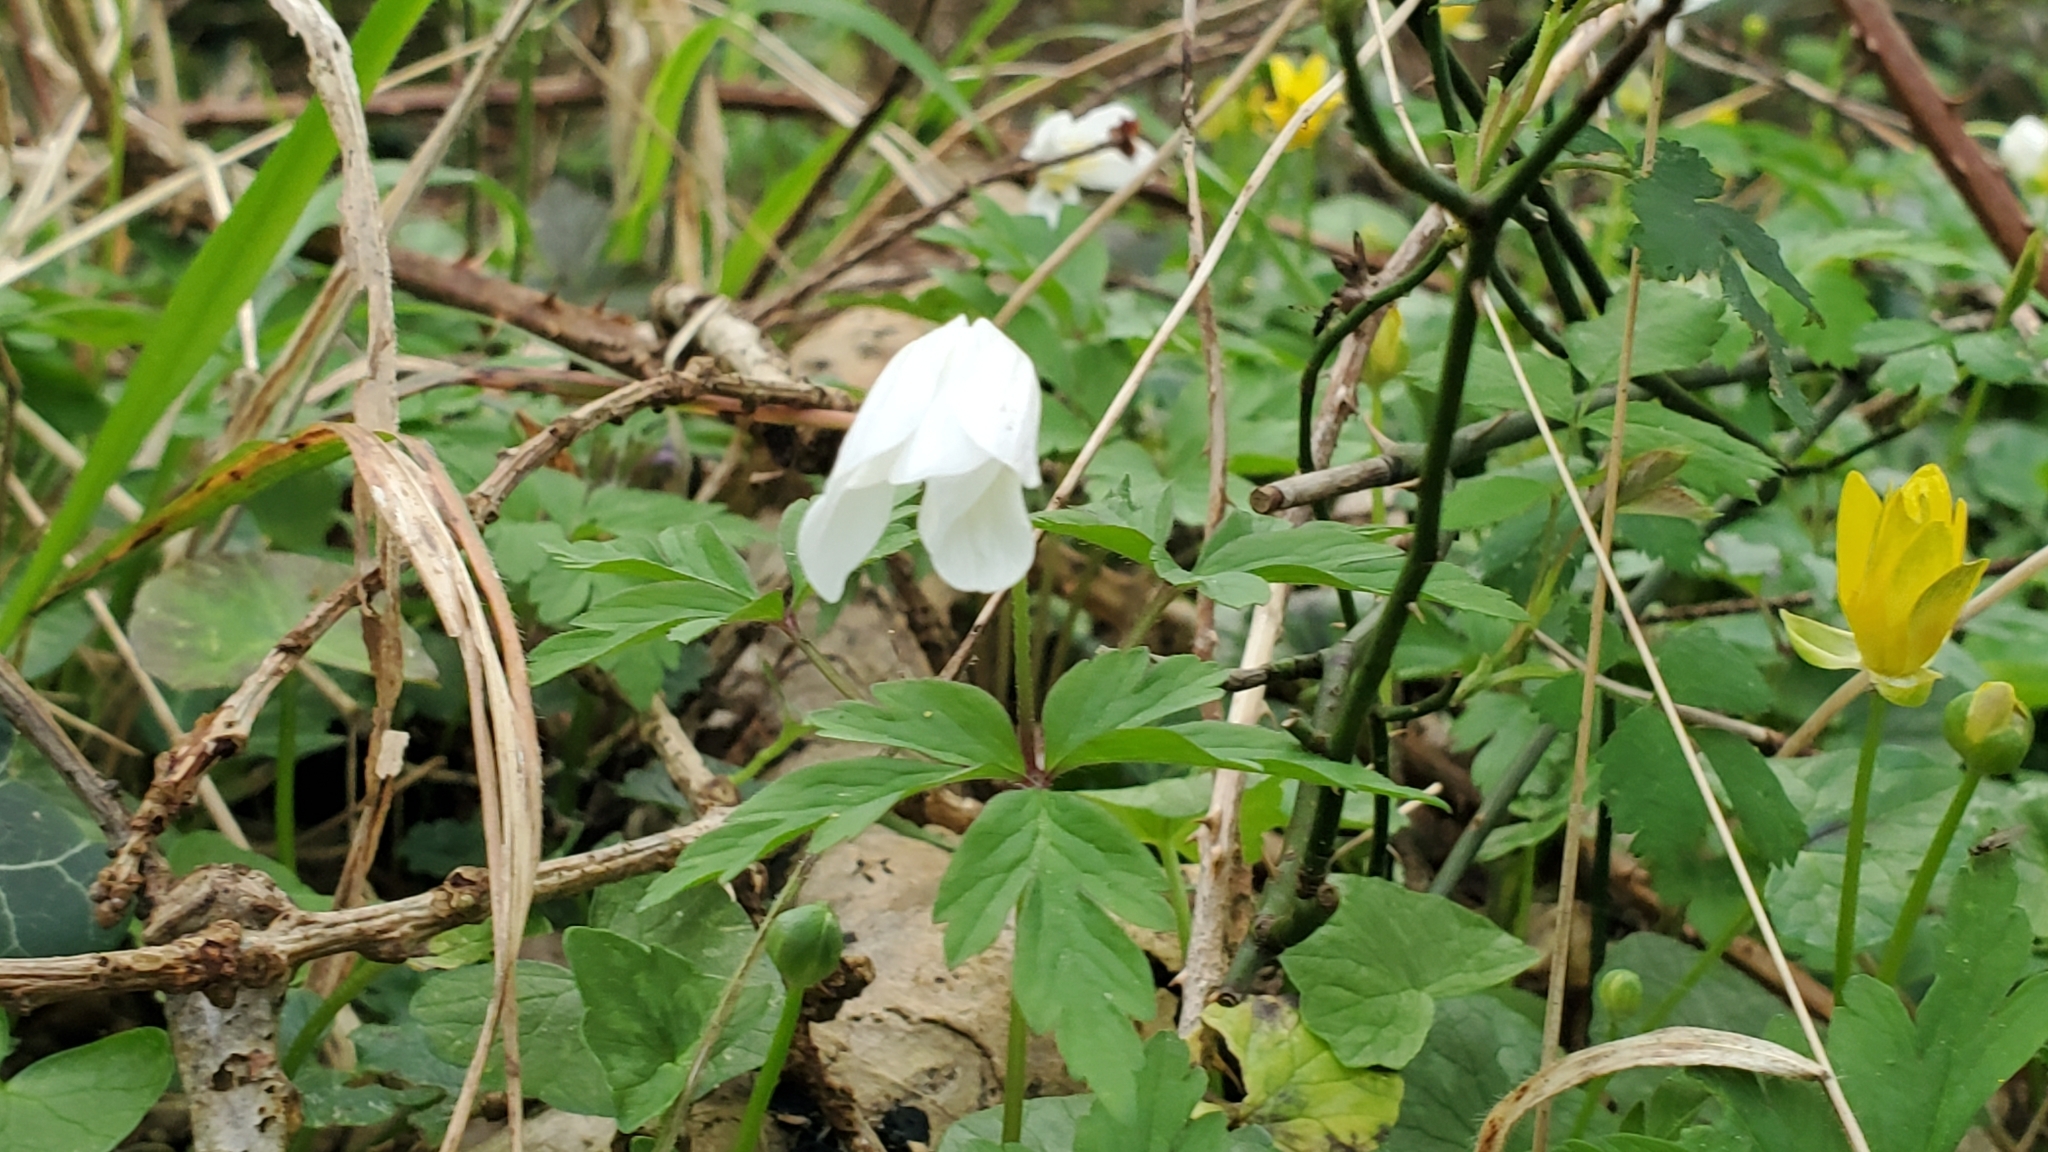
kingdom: Plantae
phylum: Tracheophyta
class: Magnoliopsida
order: Ranunculales
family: Ranunculaceae
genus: Anemone
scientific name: Anemone nemorosa
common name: Wood anemone
